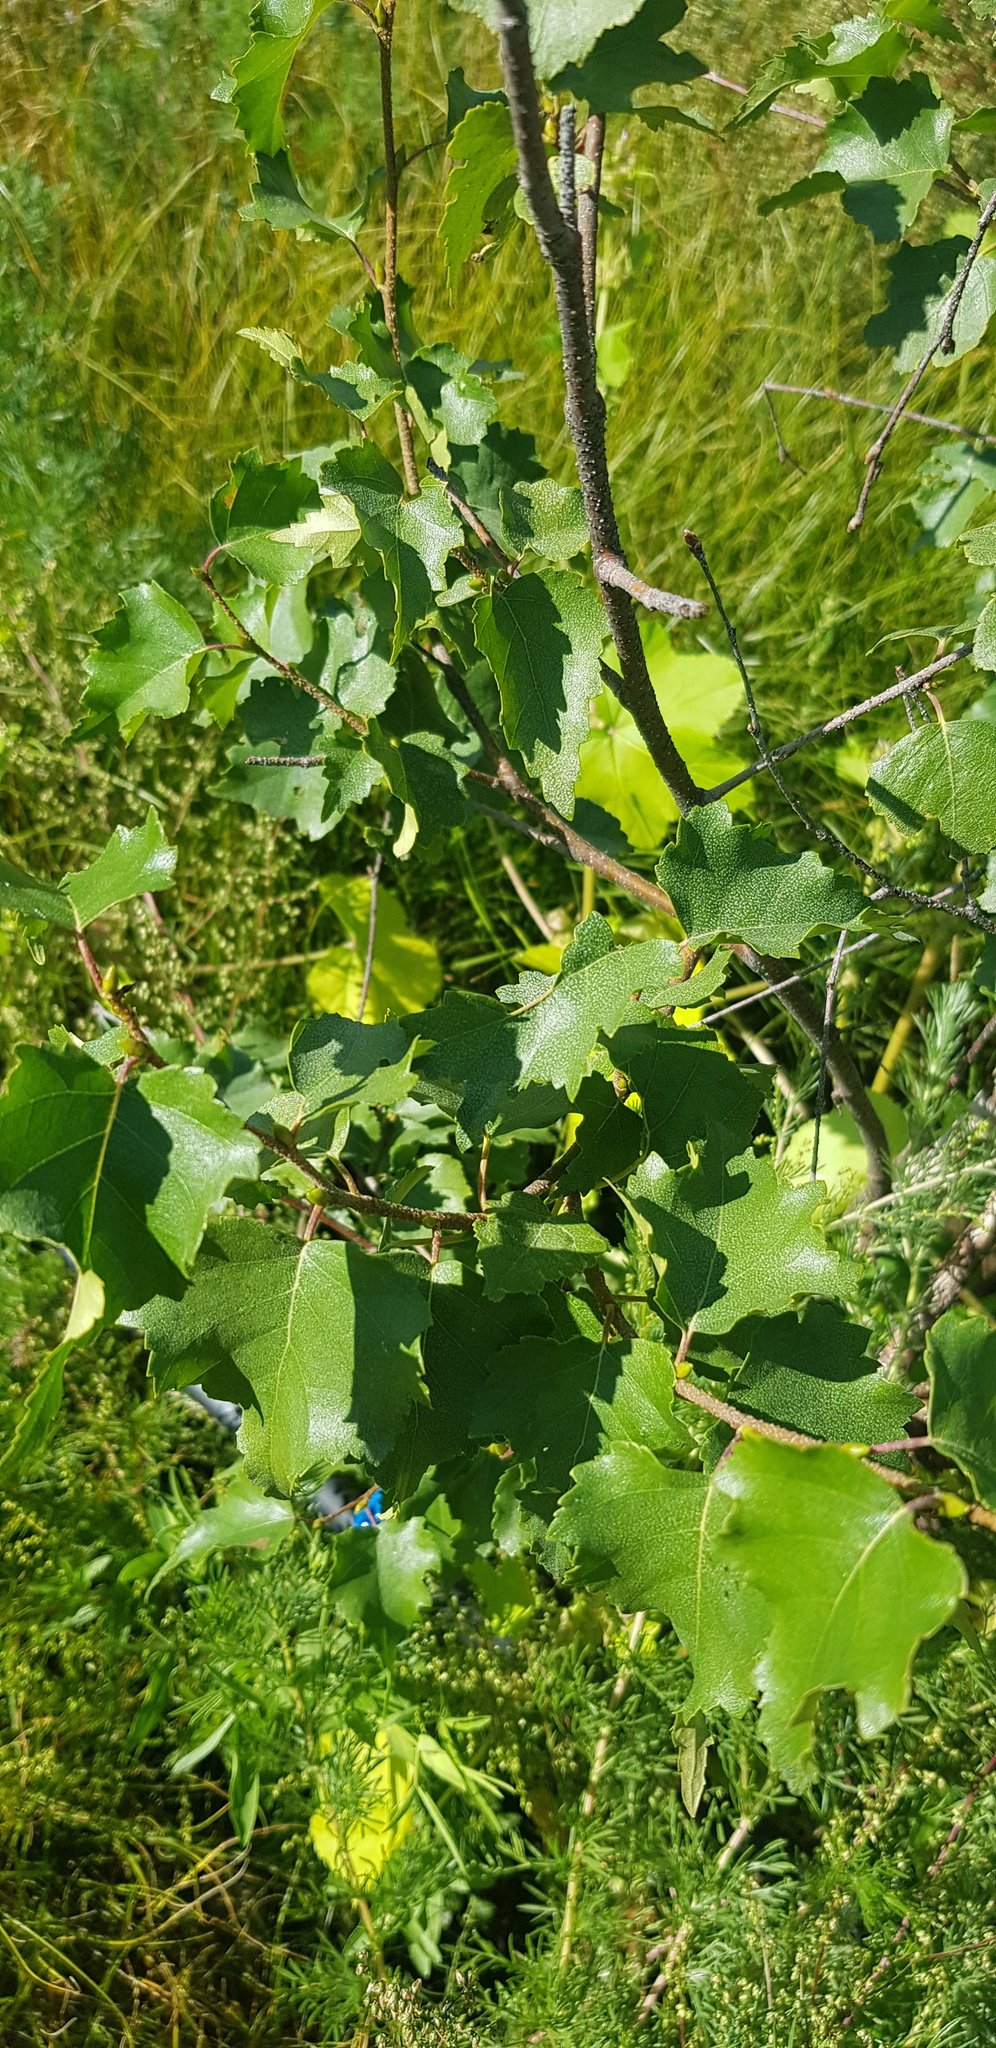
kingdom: Plantae
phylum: Tracheophyta
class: Magnoliopsida
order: Fagales
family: Betulaceae
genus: Betula
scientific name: Betula fruticosa
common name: Japanese bog birch
